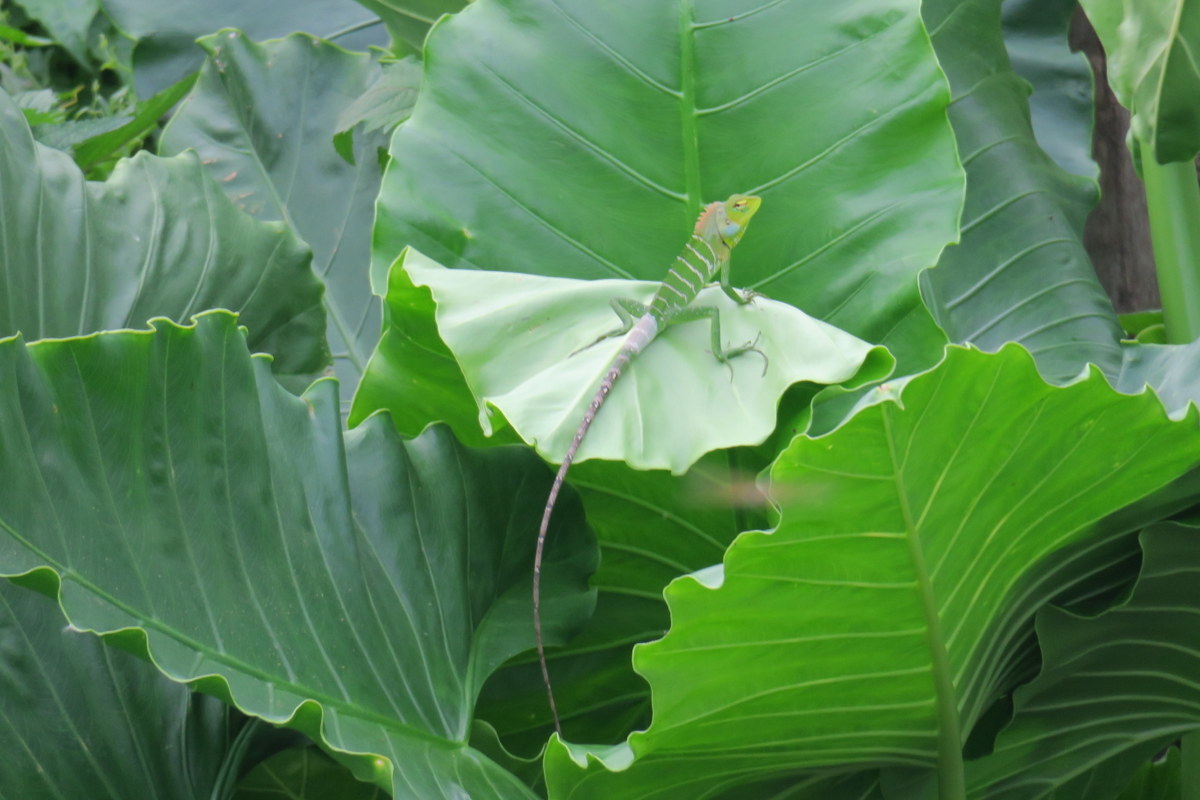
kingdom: Animalia
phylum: Chordata
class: Squamata
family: Agamidae
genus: Calotes
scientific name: Calotes calotes
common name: Common green forest lizard
